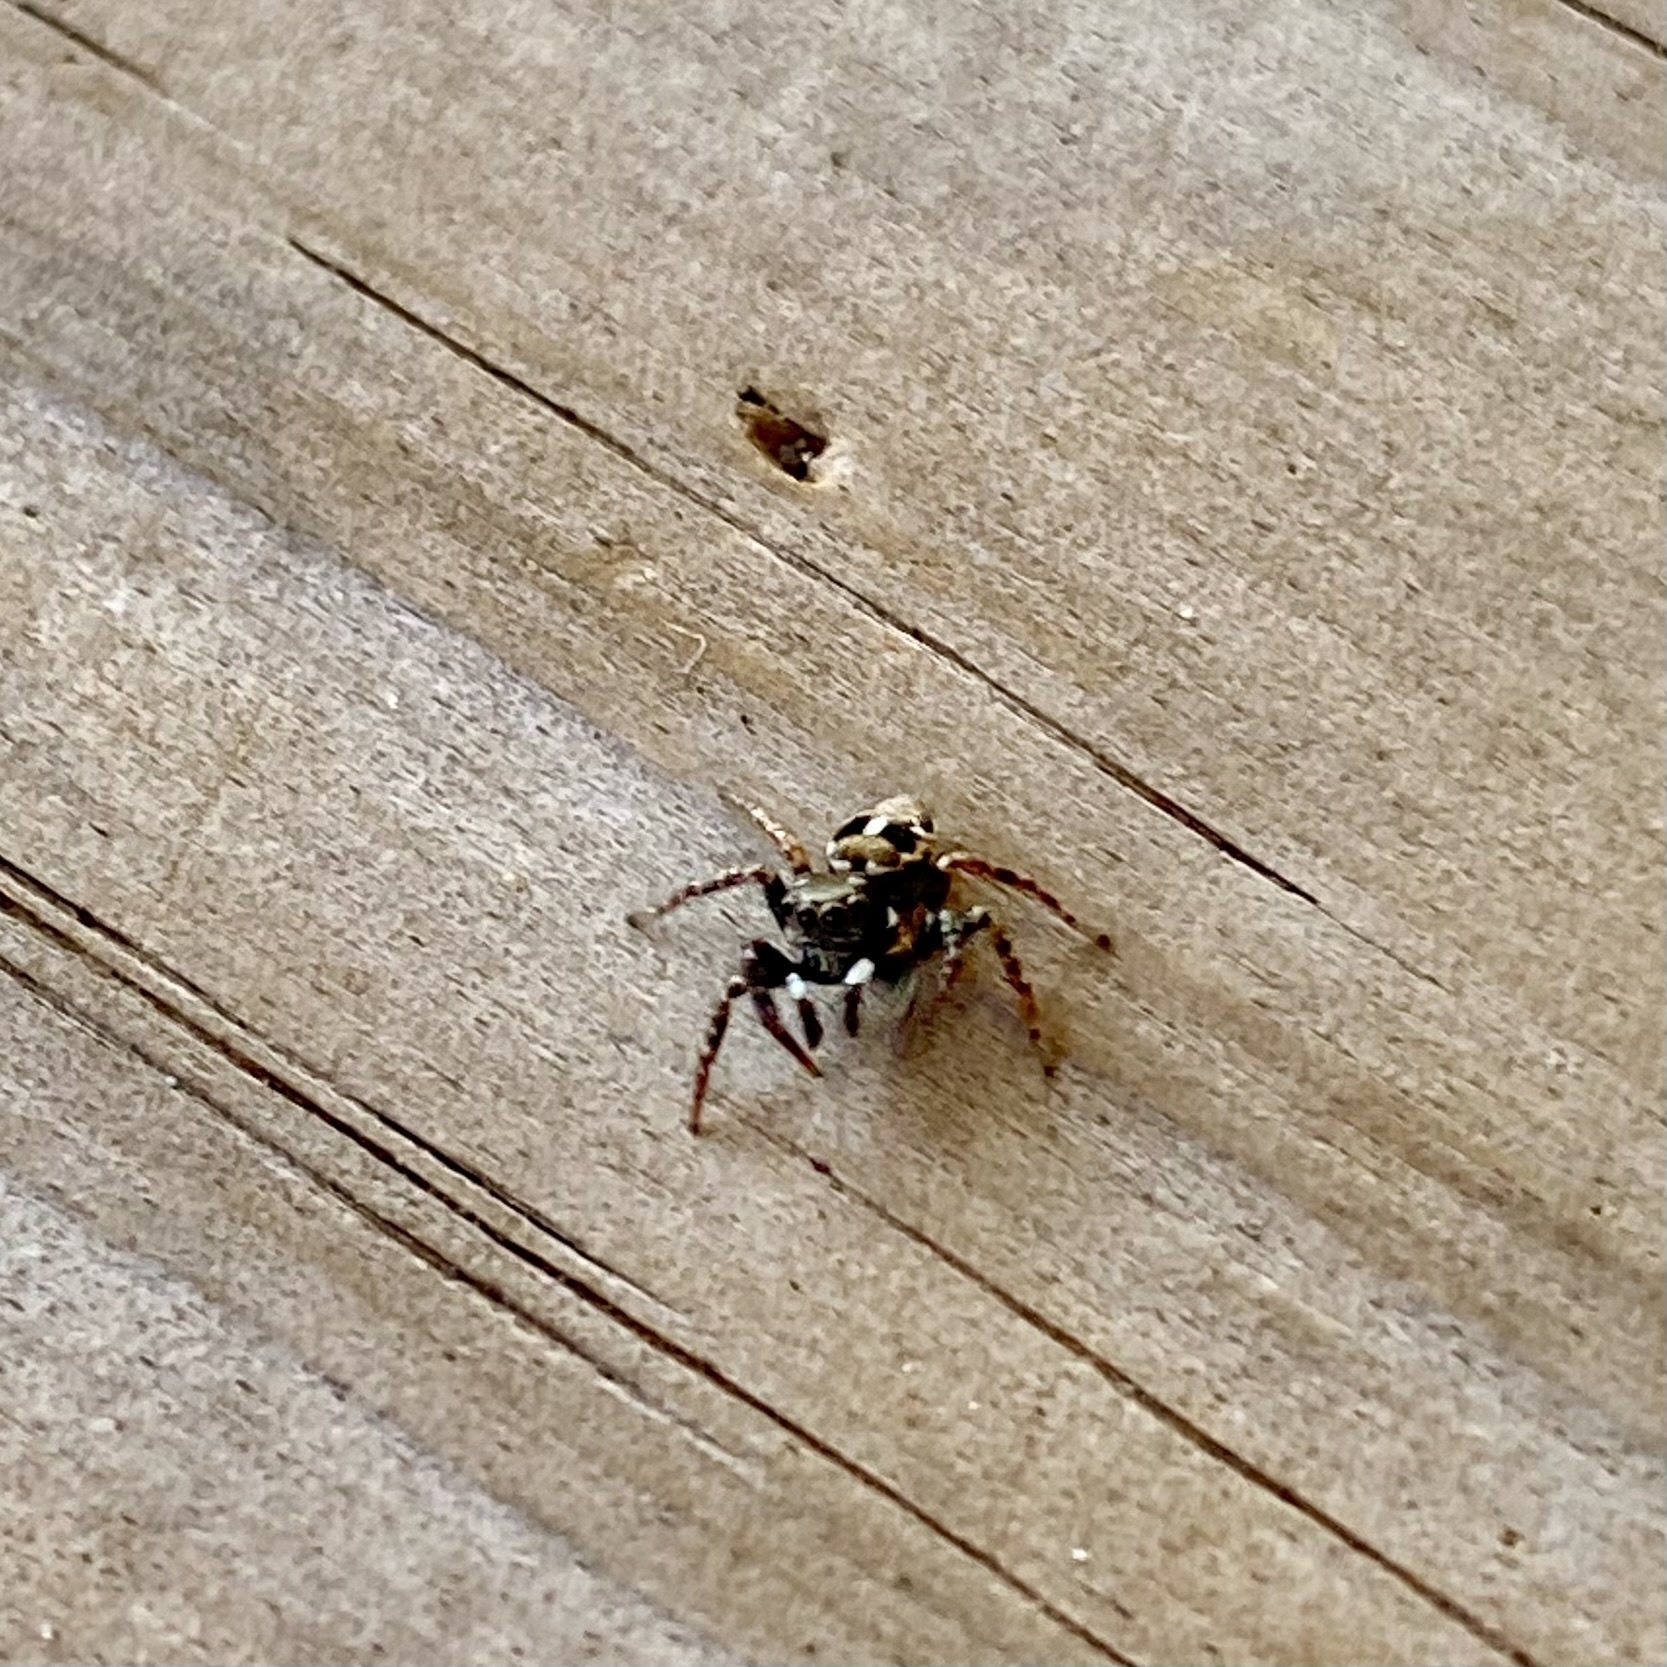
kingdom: Animalia
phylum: Arthropoda
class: Arachnida
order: Araneae
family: Salticidae
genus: Anasaitis
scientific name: Anasaitis canosa
